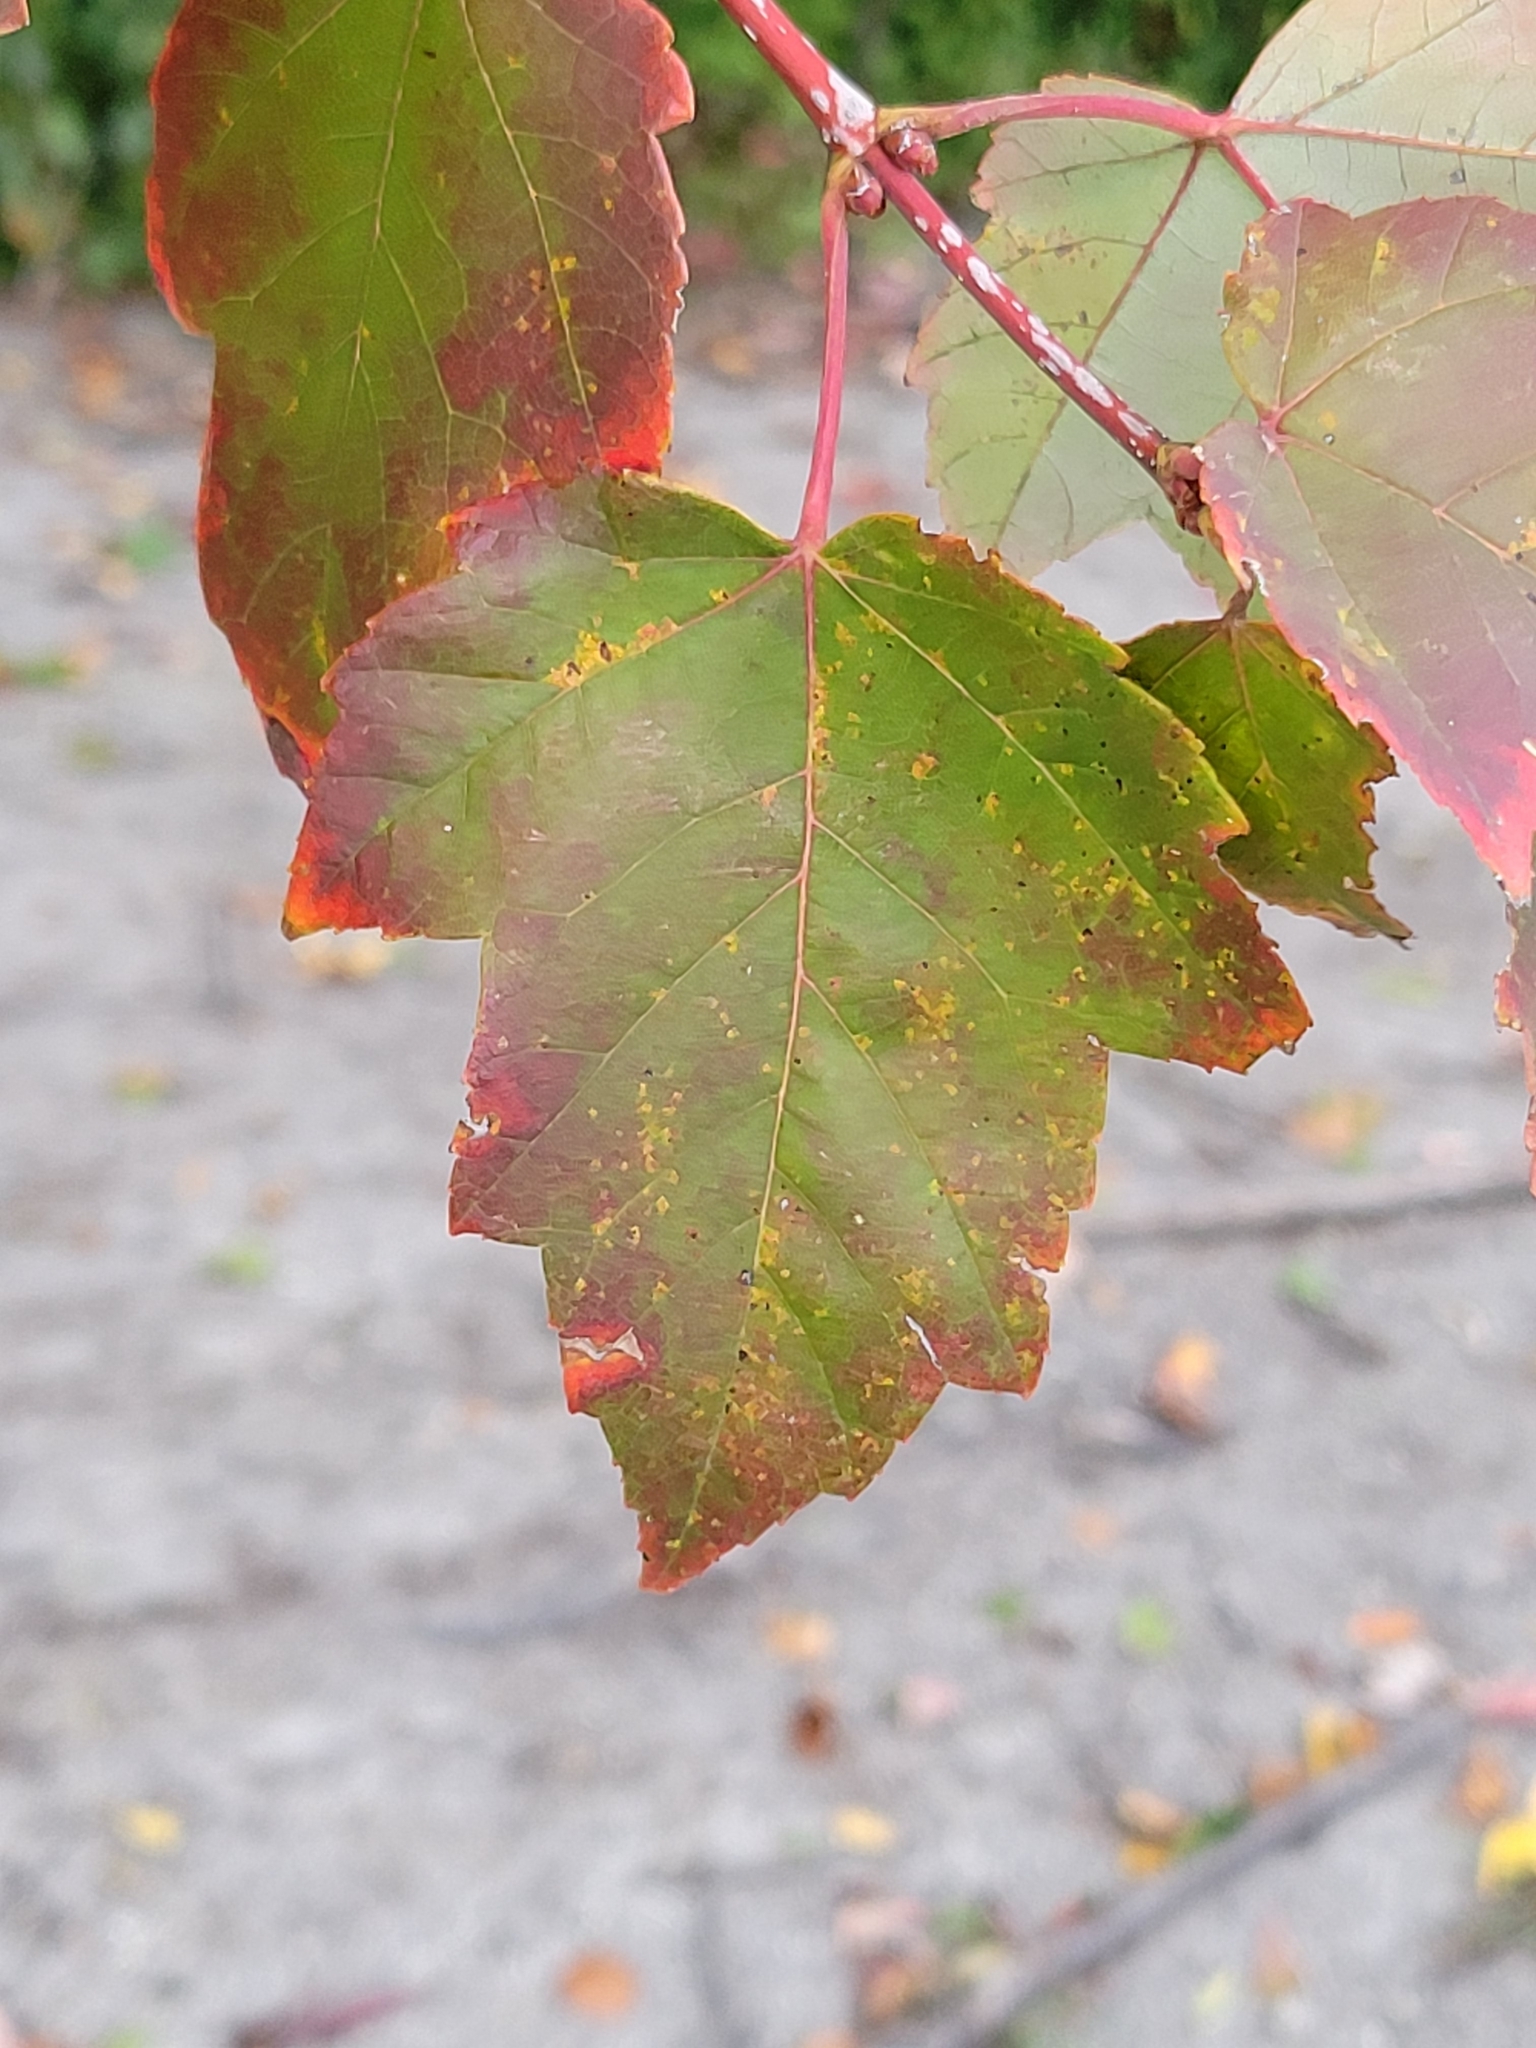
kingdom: Plantae
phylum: Tracheophyta
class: Magnoliopsida
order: Sapindales
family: Sapindaceae
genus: Acer
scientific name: Acer rubrum
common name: Red maple
